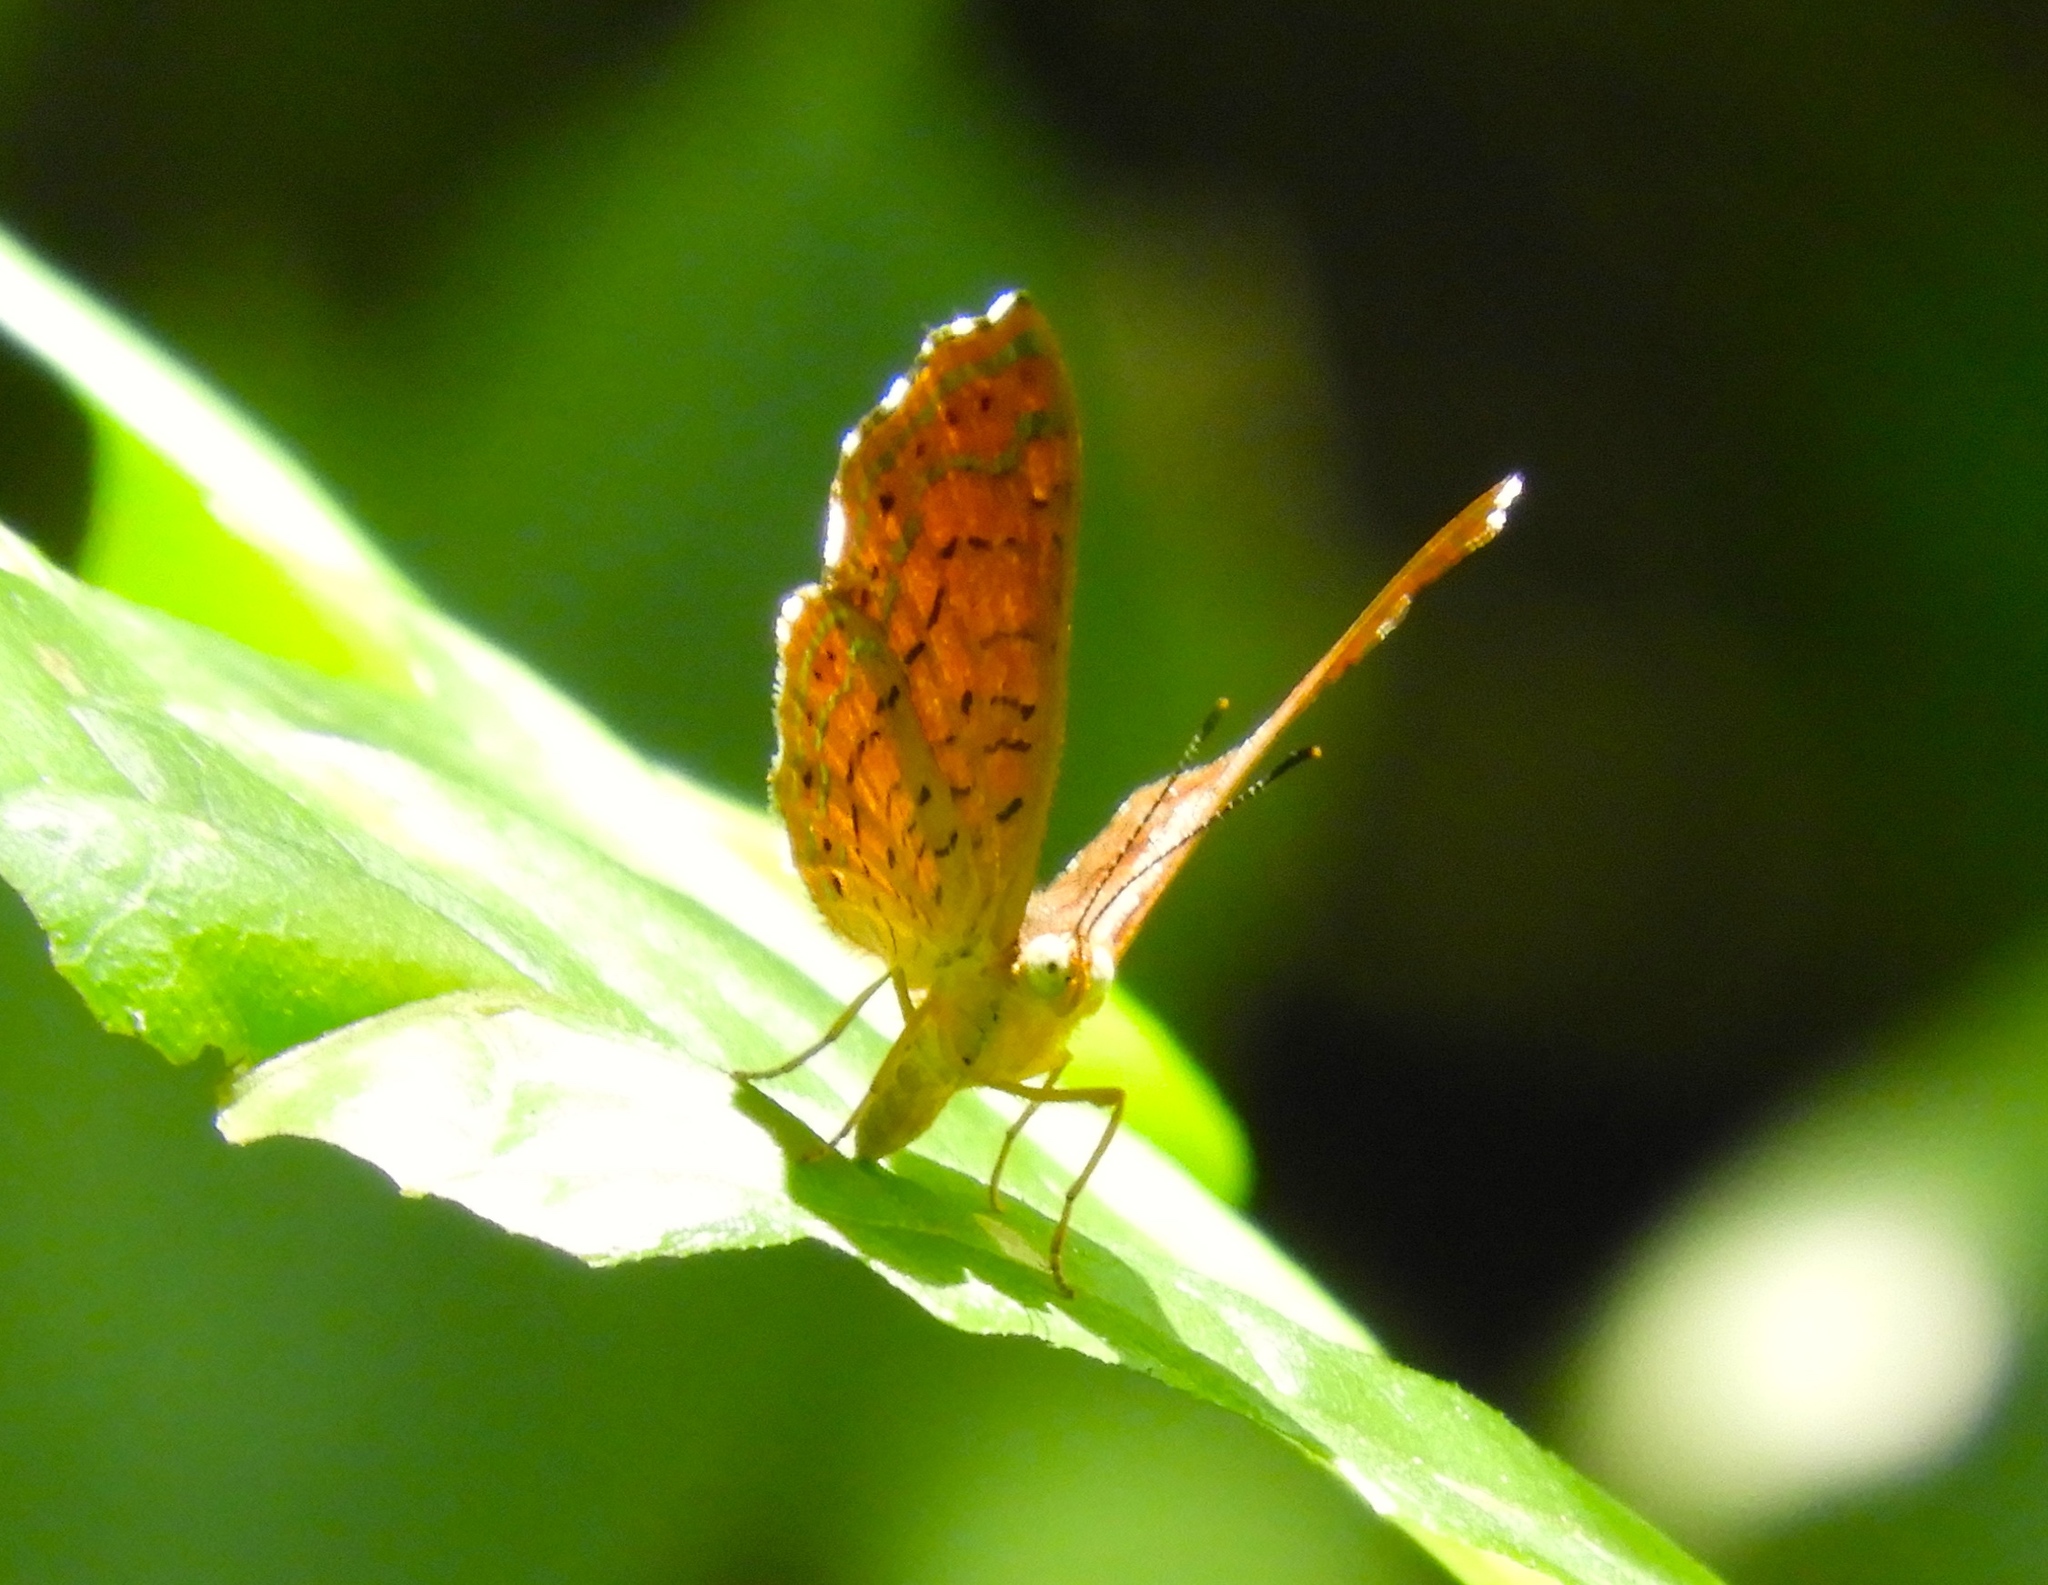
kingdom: Animalia
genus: Calephelis
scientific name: Calephelis
